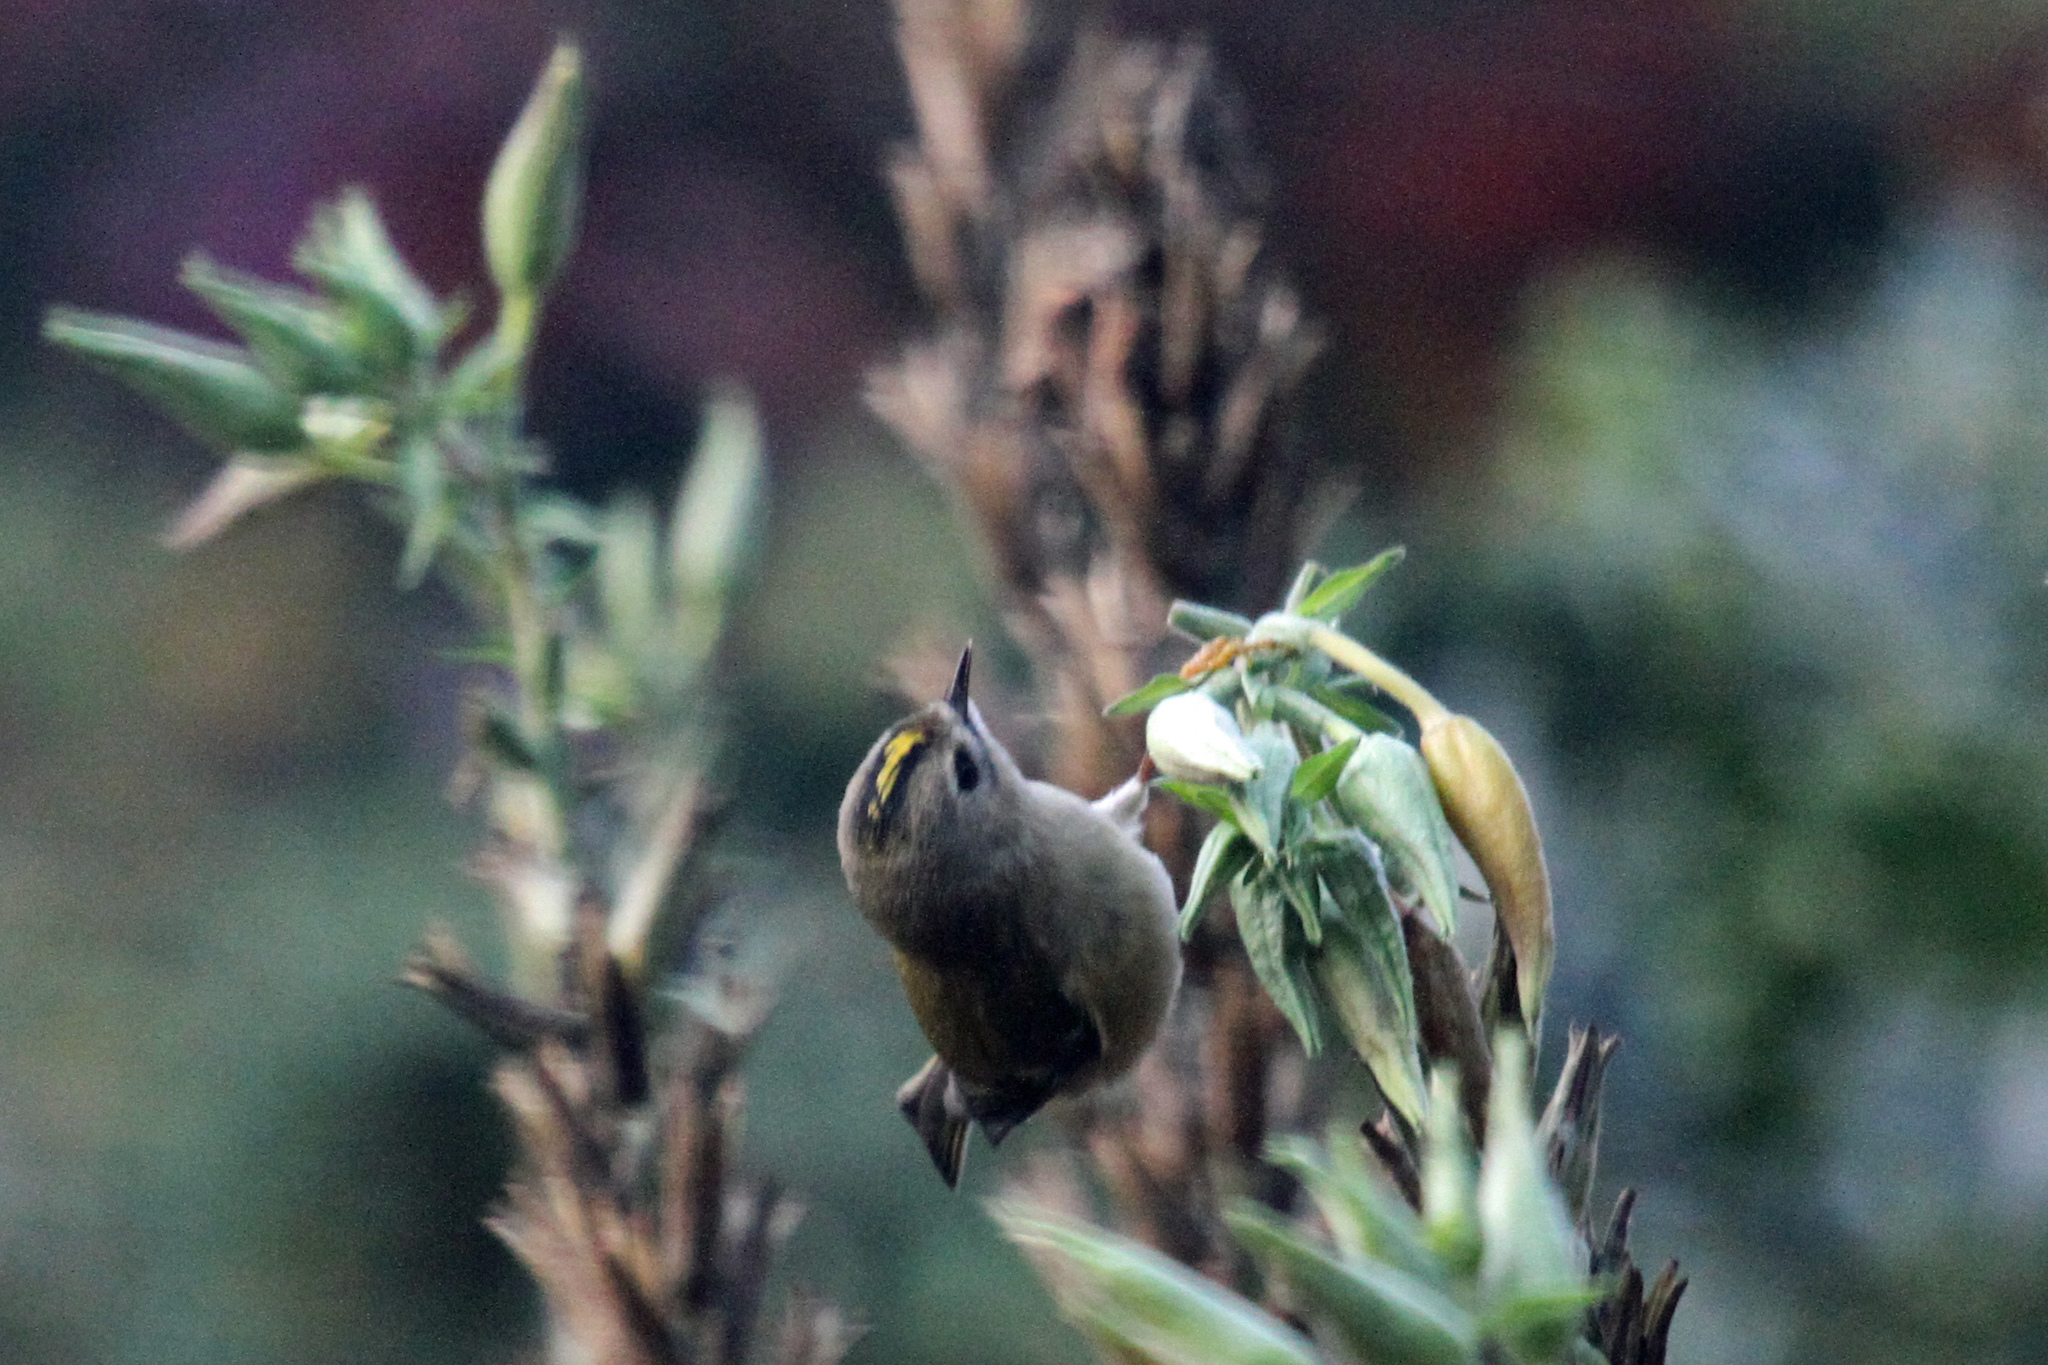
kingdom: Animalia
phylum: Chordata
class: Aves
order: Passeriformes
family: Regulidae
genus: Regulus
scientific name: Regulus regulus
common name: Goldcrest
